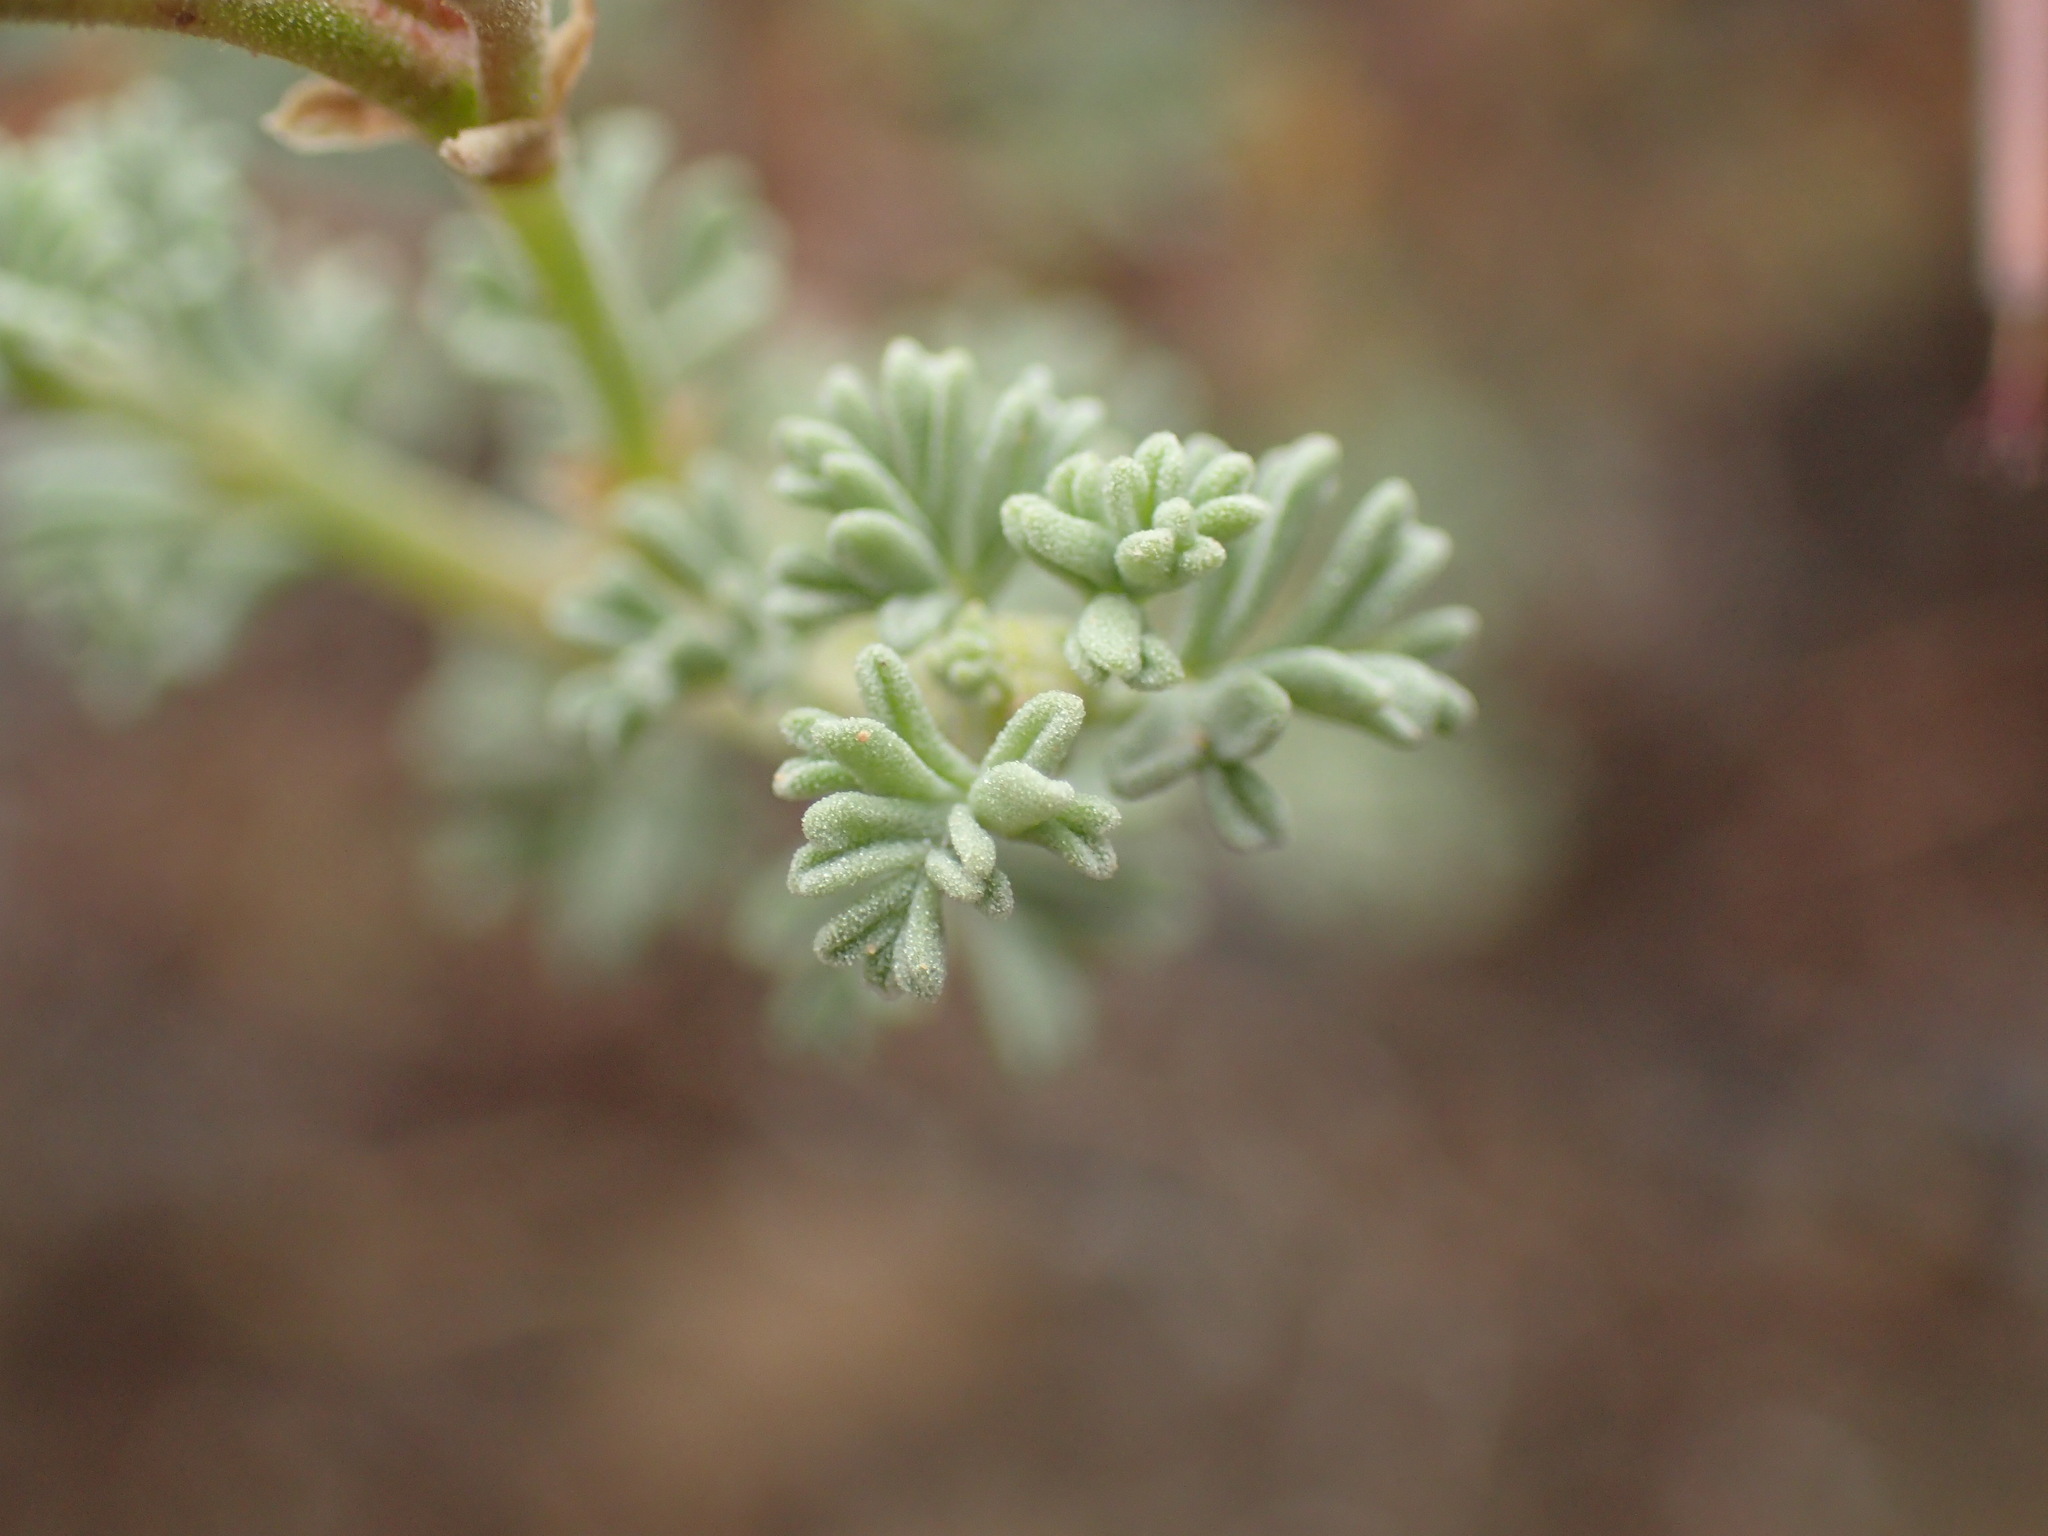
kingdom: Plantae
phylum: Tracheophyta
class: Magnoliopsida
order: Geraniales
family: Geraniaceae
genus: Pelargonium
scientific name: Pelargonium abrotanifolium
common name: Southernwood geranium
